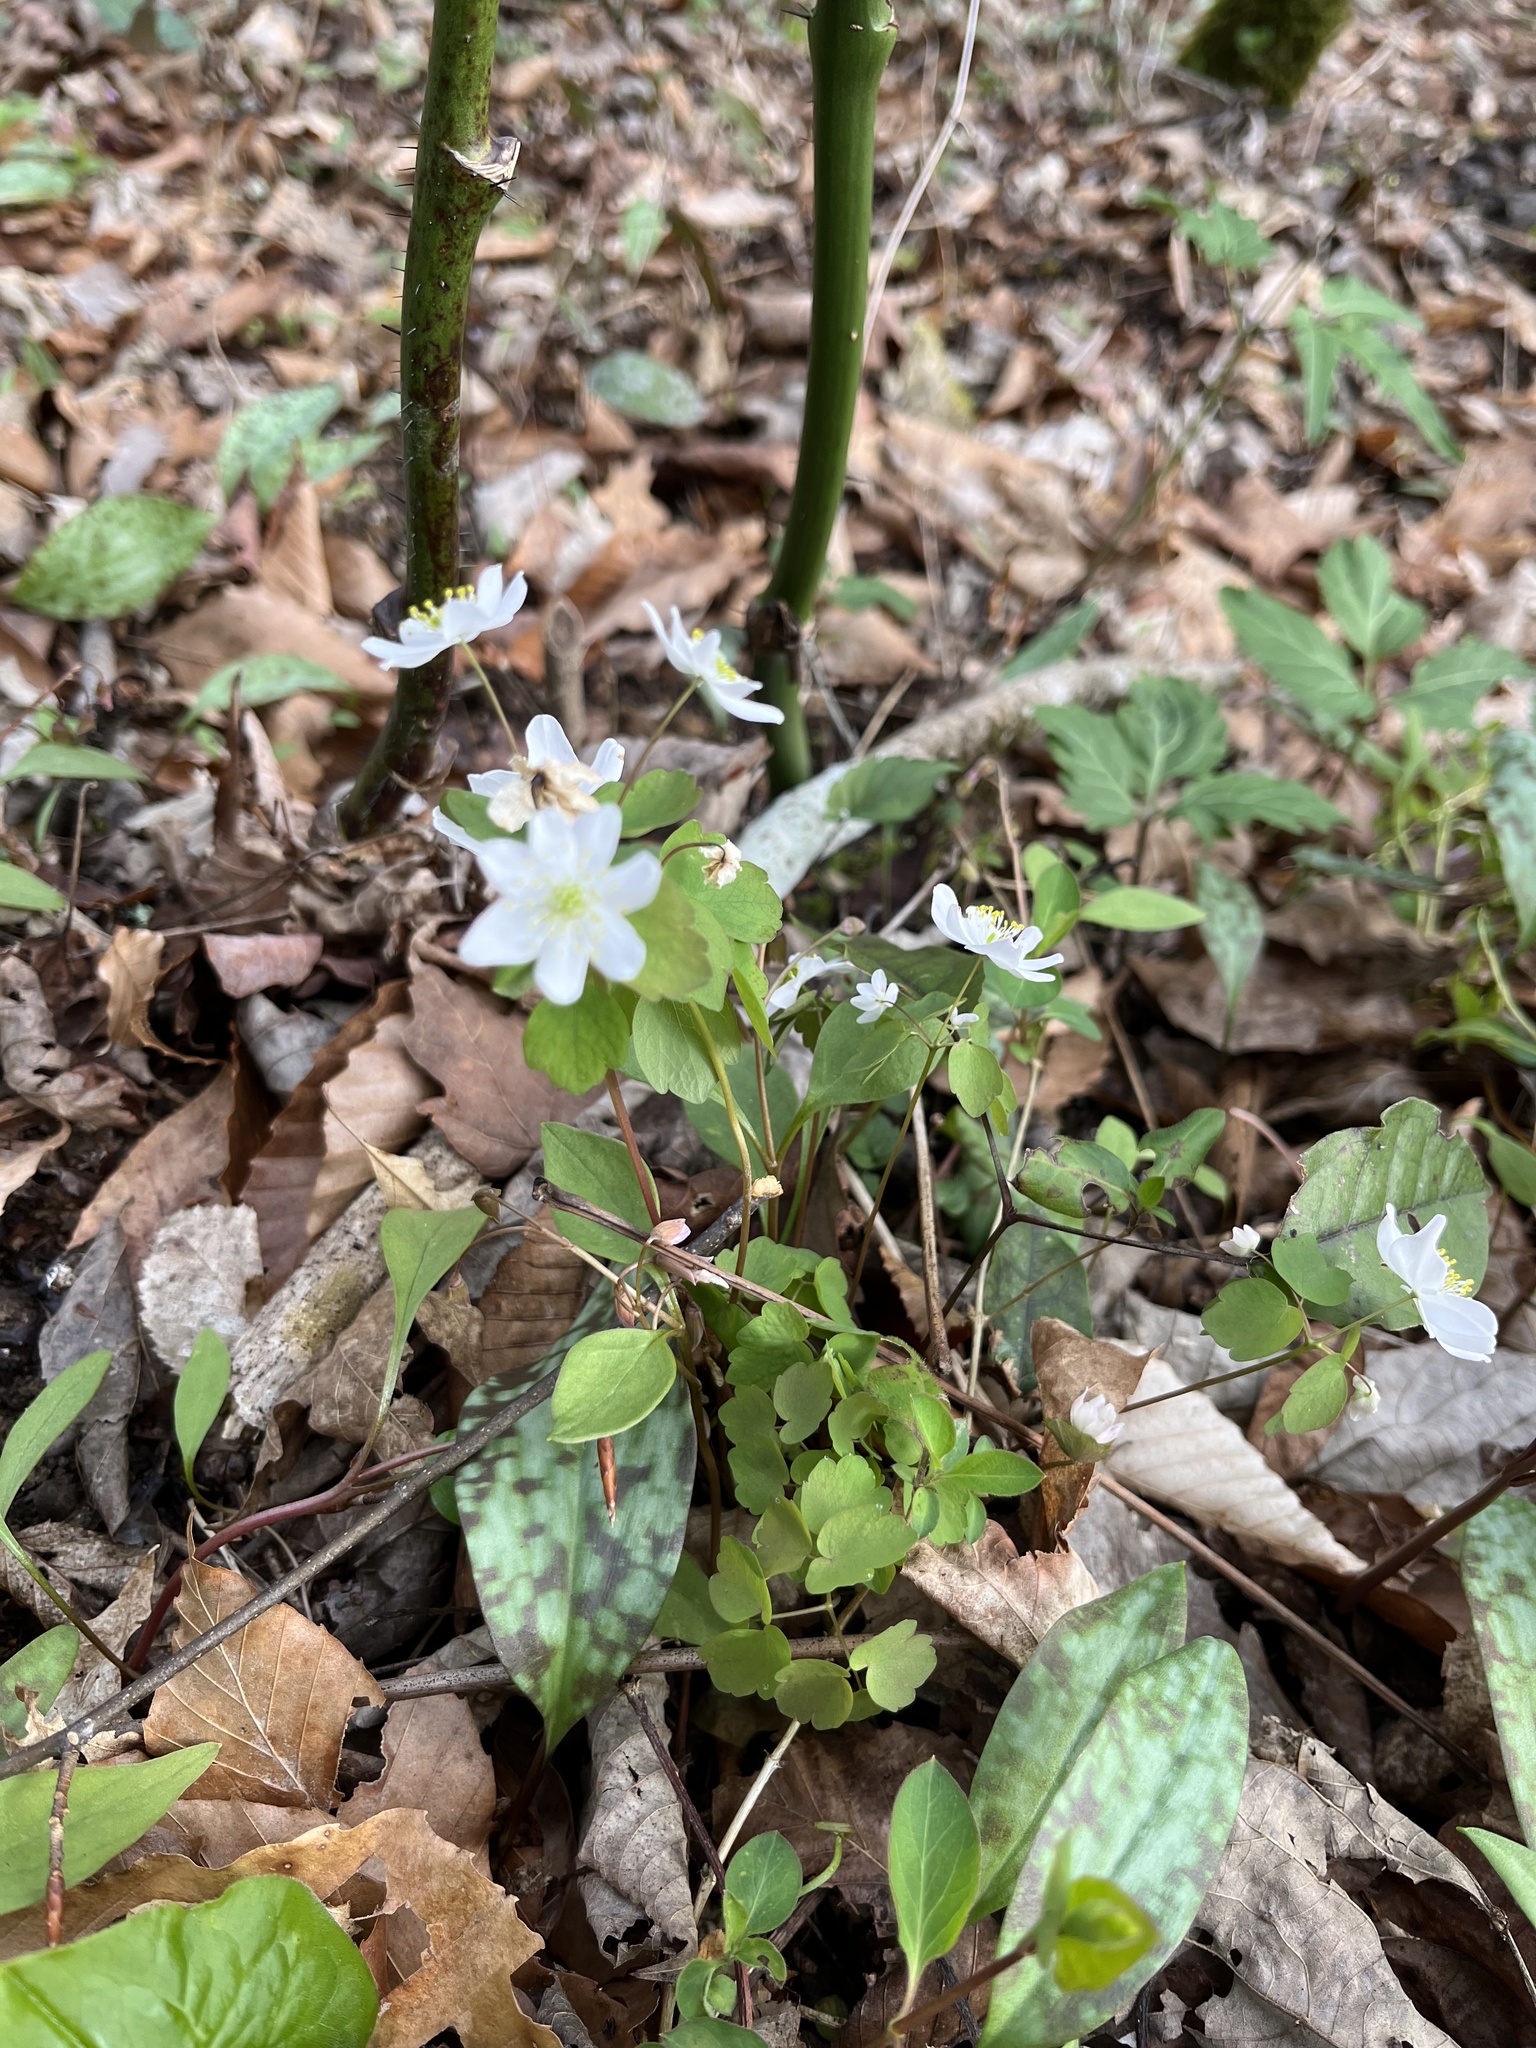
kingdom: Plantae
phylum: Tracheophyta
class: Magnoliopsida
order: Ranunculales
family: Ranunculaceae
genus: Thalictrum
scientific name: Thalictrum thalictroides
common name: Rue-anemone
